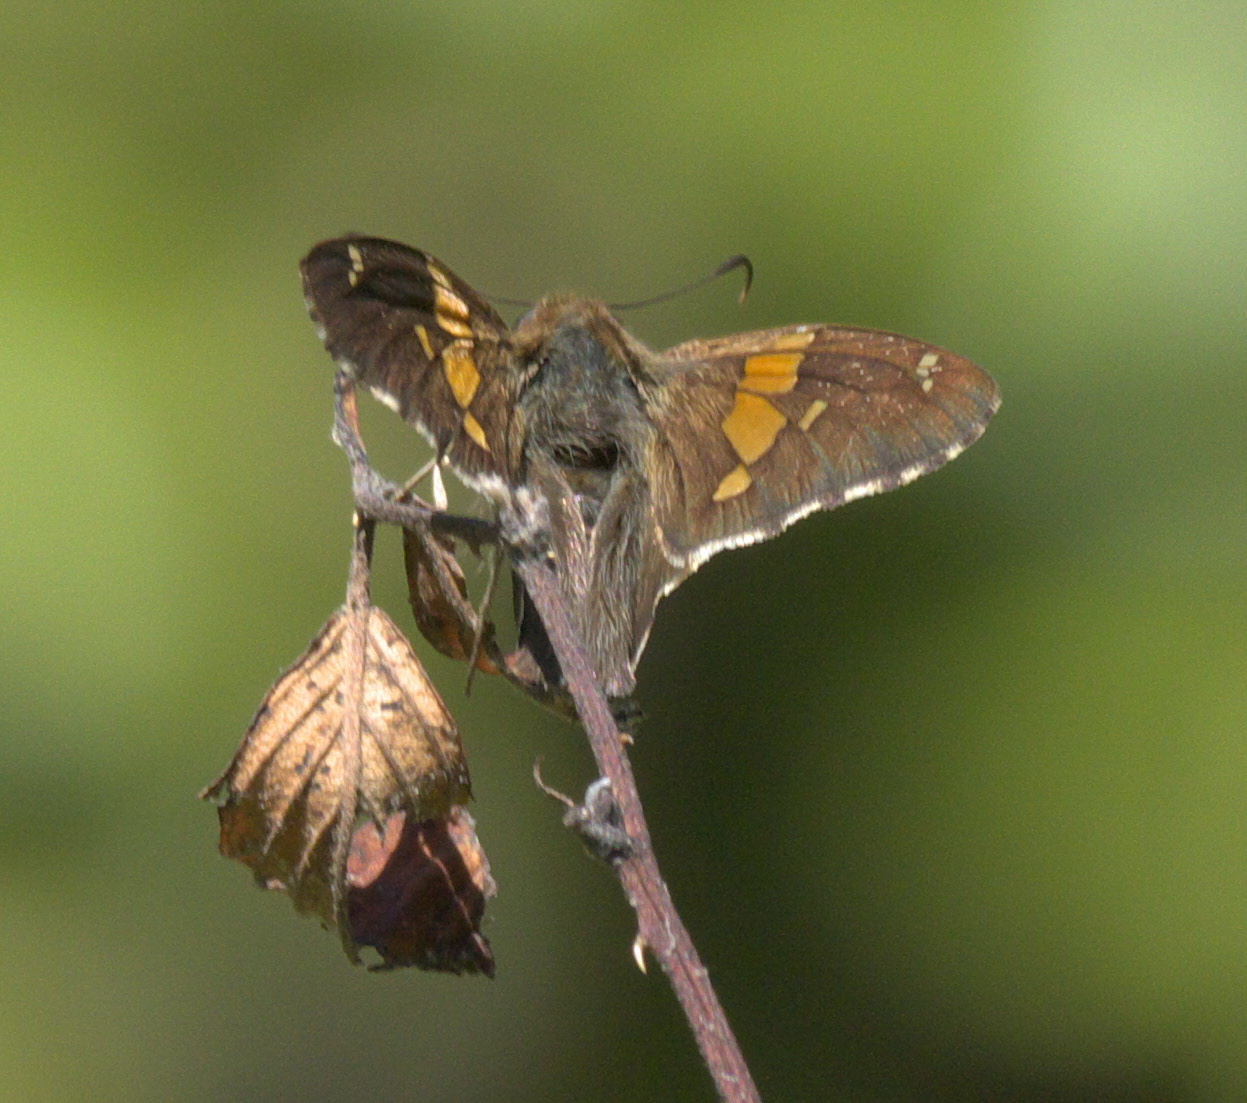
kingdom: Animalia
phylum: Arthropoda
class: Insecta
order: Lepidoptera
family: Hesperiidae
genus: Epargyreus
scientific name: Epargyreus clarus
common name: Silver-spotted skipper
